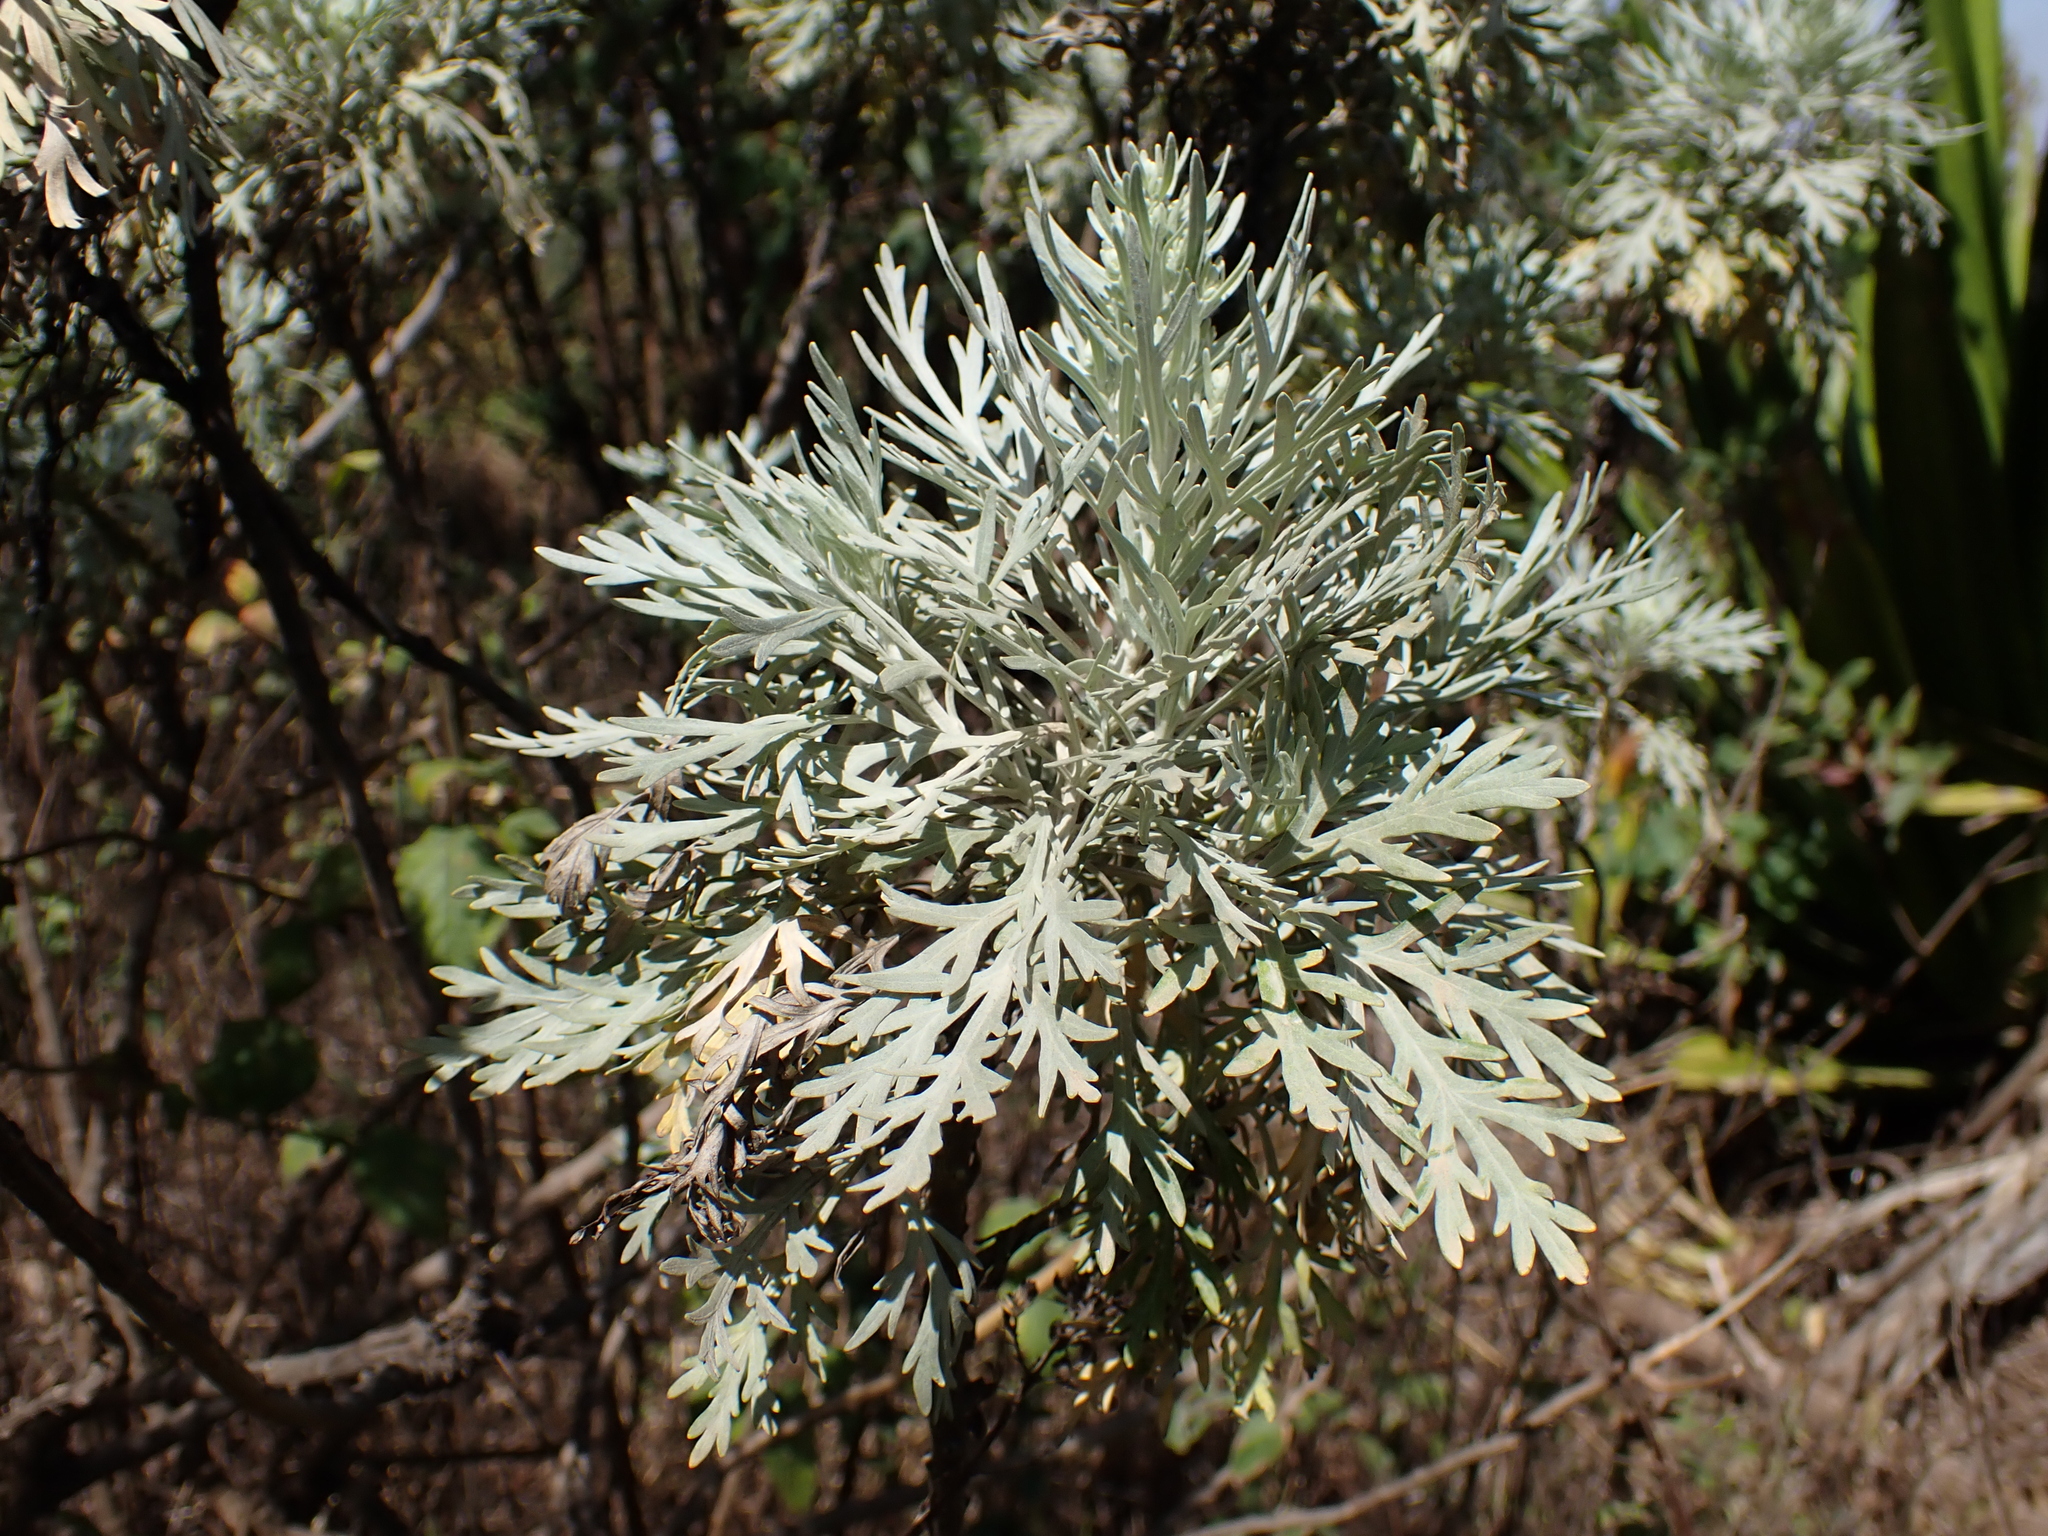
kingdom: Plantae
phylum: Tracheophyta
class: Magnoliopsida
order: Asterales
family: Asteraceae
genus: Artemisia
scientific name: Artemisia gorgonum
